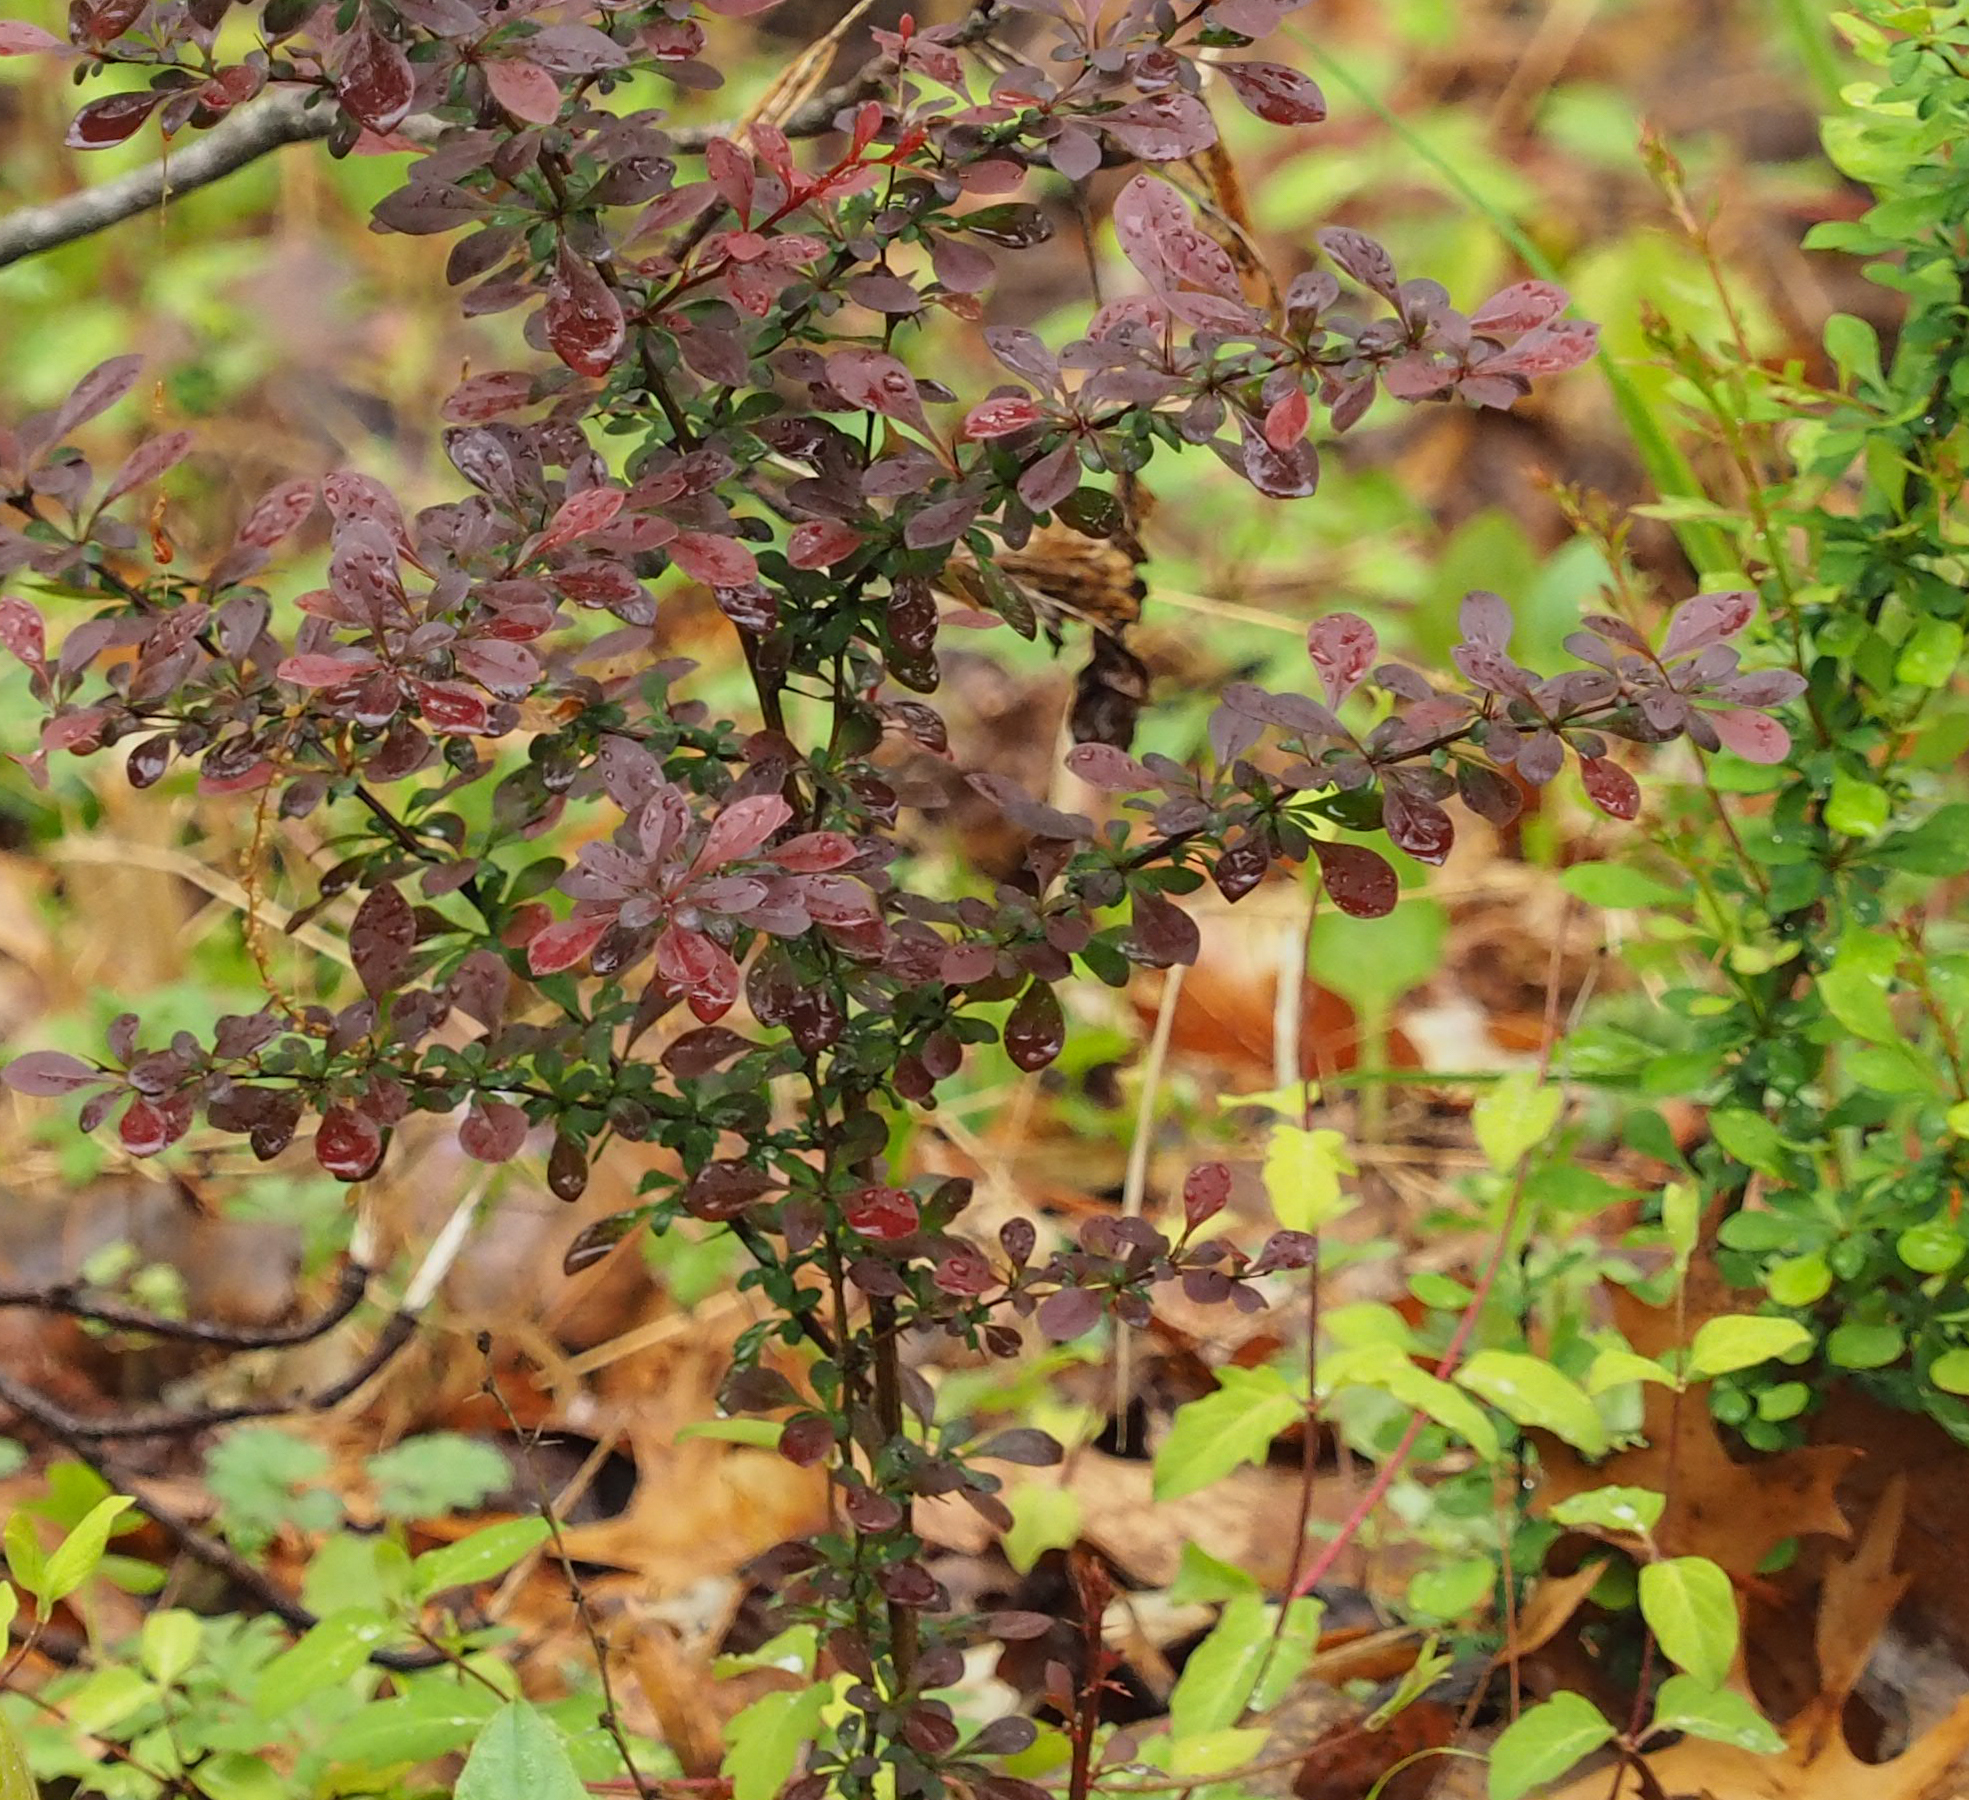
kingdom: Plantae
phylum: Tracheophyta
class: Magnoliopsida
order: Ranunculales
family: Berberidaceae
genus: Berberis
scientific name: Berberis thunbergii
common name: Japanese barberry
